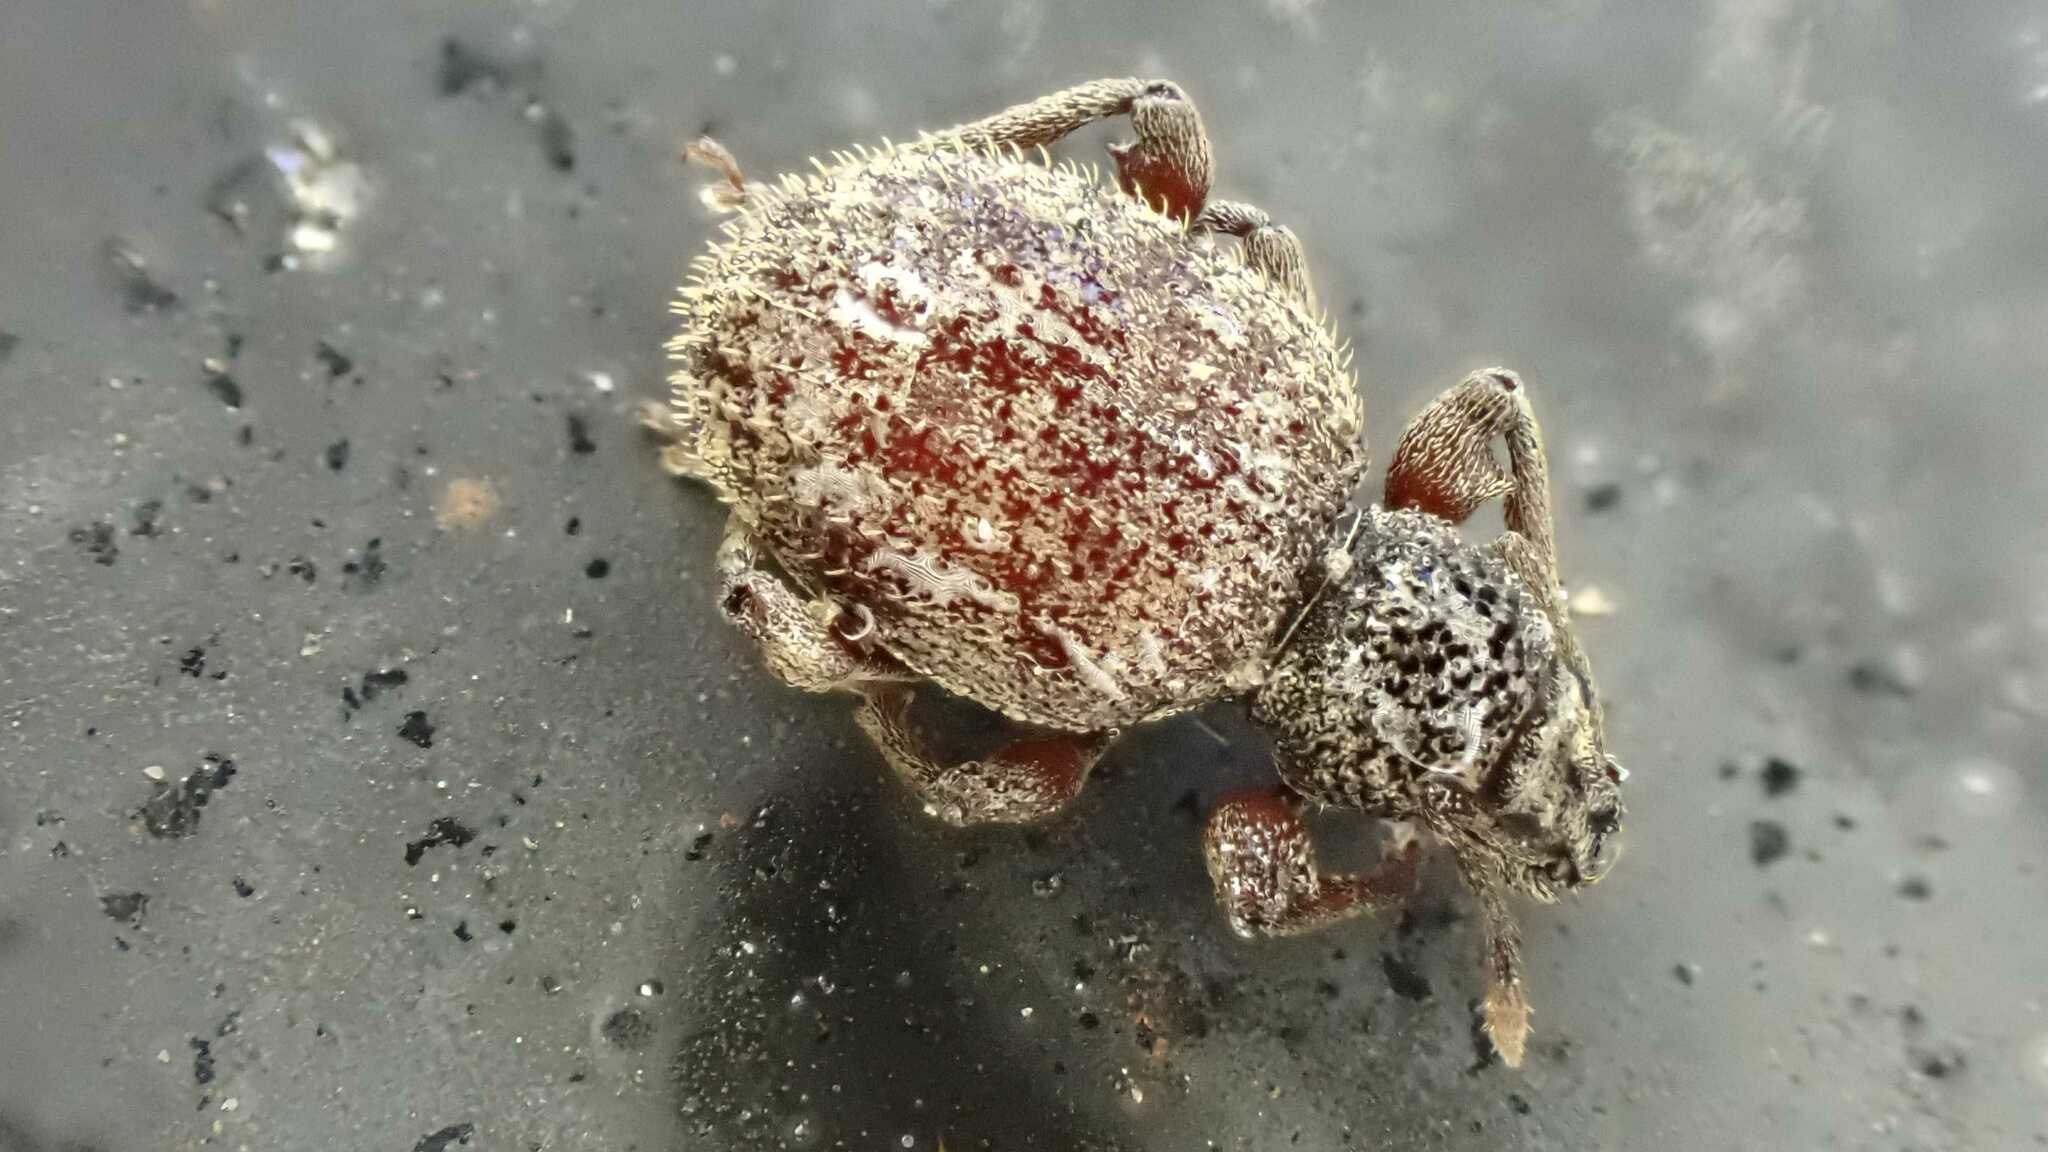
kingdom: Animalia
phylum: Arthropoda
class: Insecta
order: Coleoptera
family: Curculionidae
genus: Otiorhynchus
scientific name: Otiorhynchus crataegi
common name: Privet weevil
